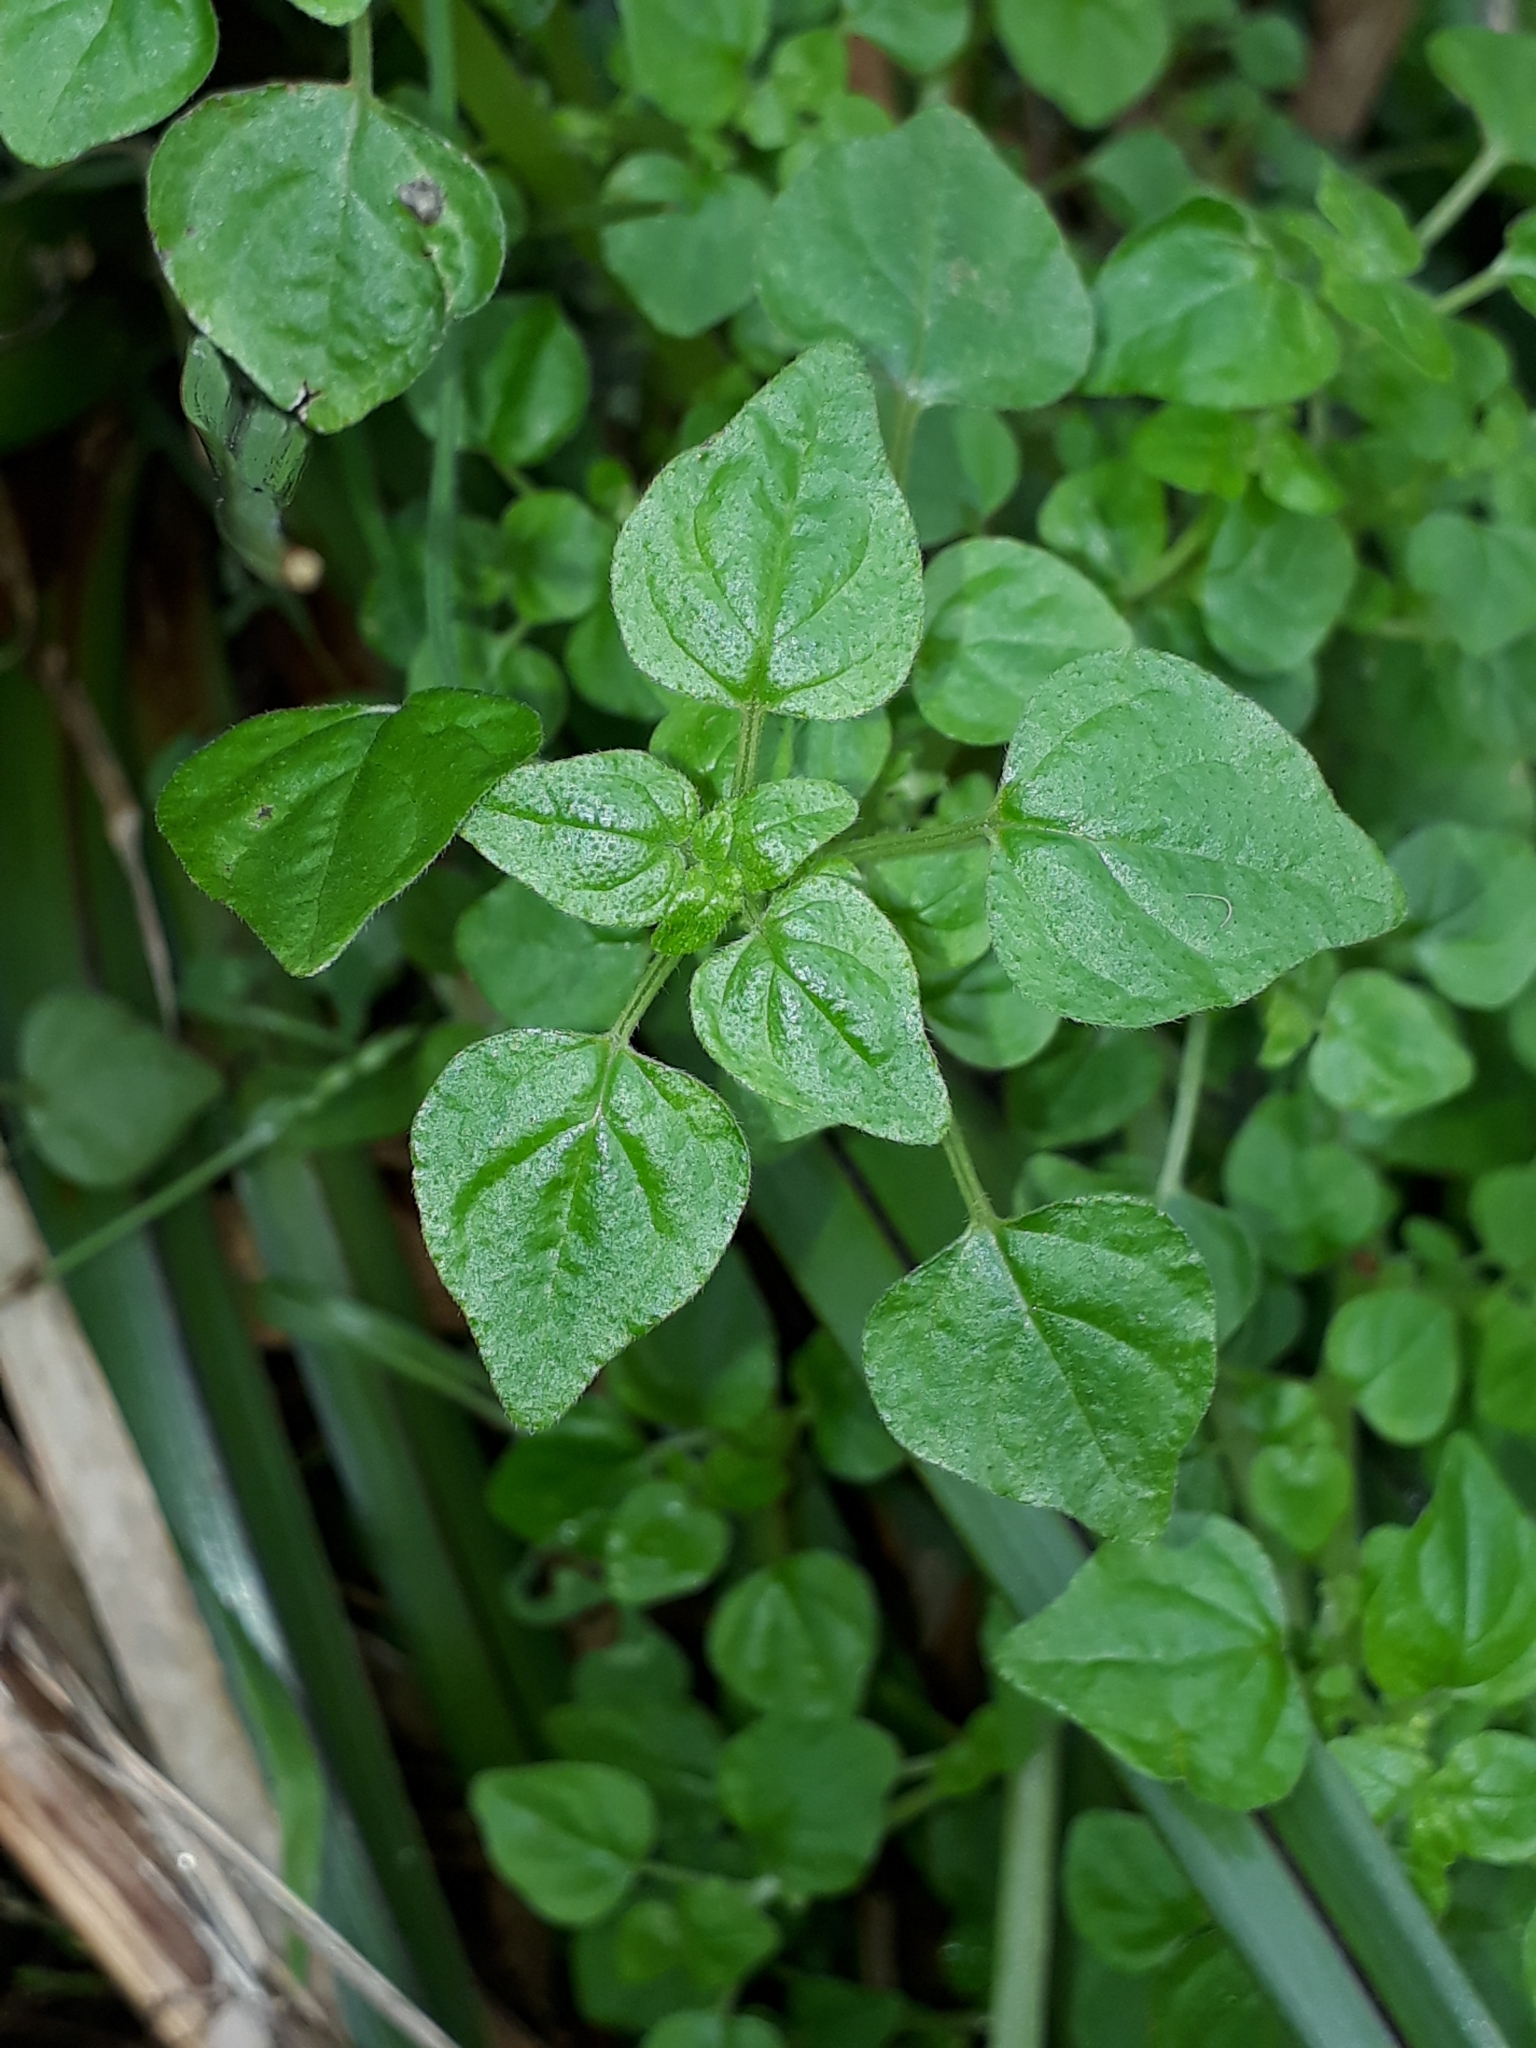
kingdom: Plantae
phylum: Tracheophyta
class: Magnoliopsida
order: Rosales
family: Urticaceae
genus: Parietaria
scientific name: Parietaria debilis
